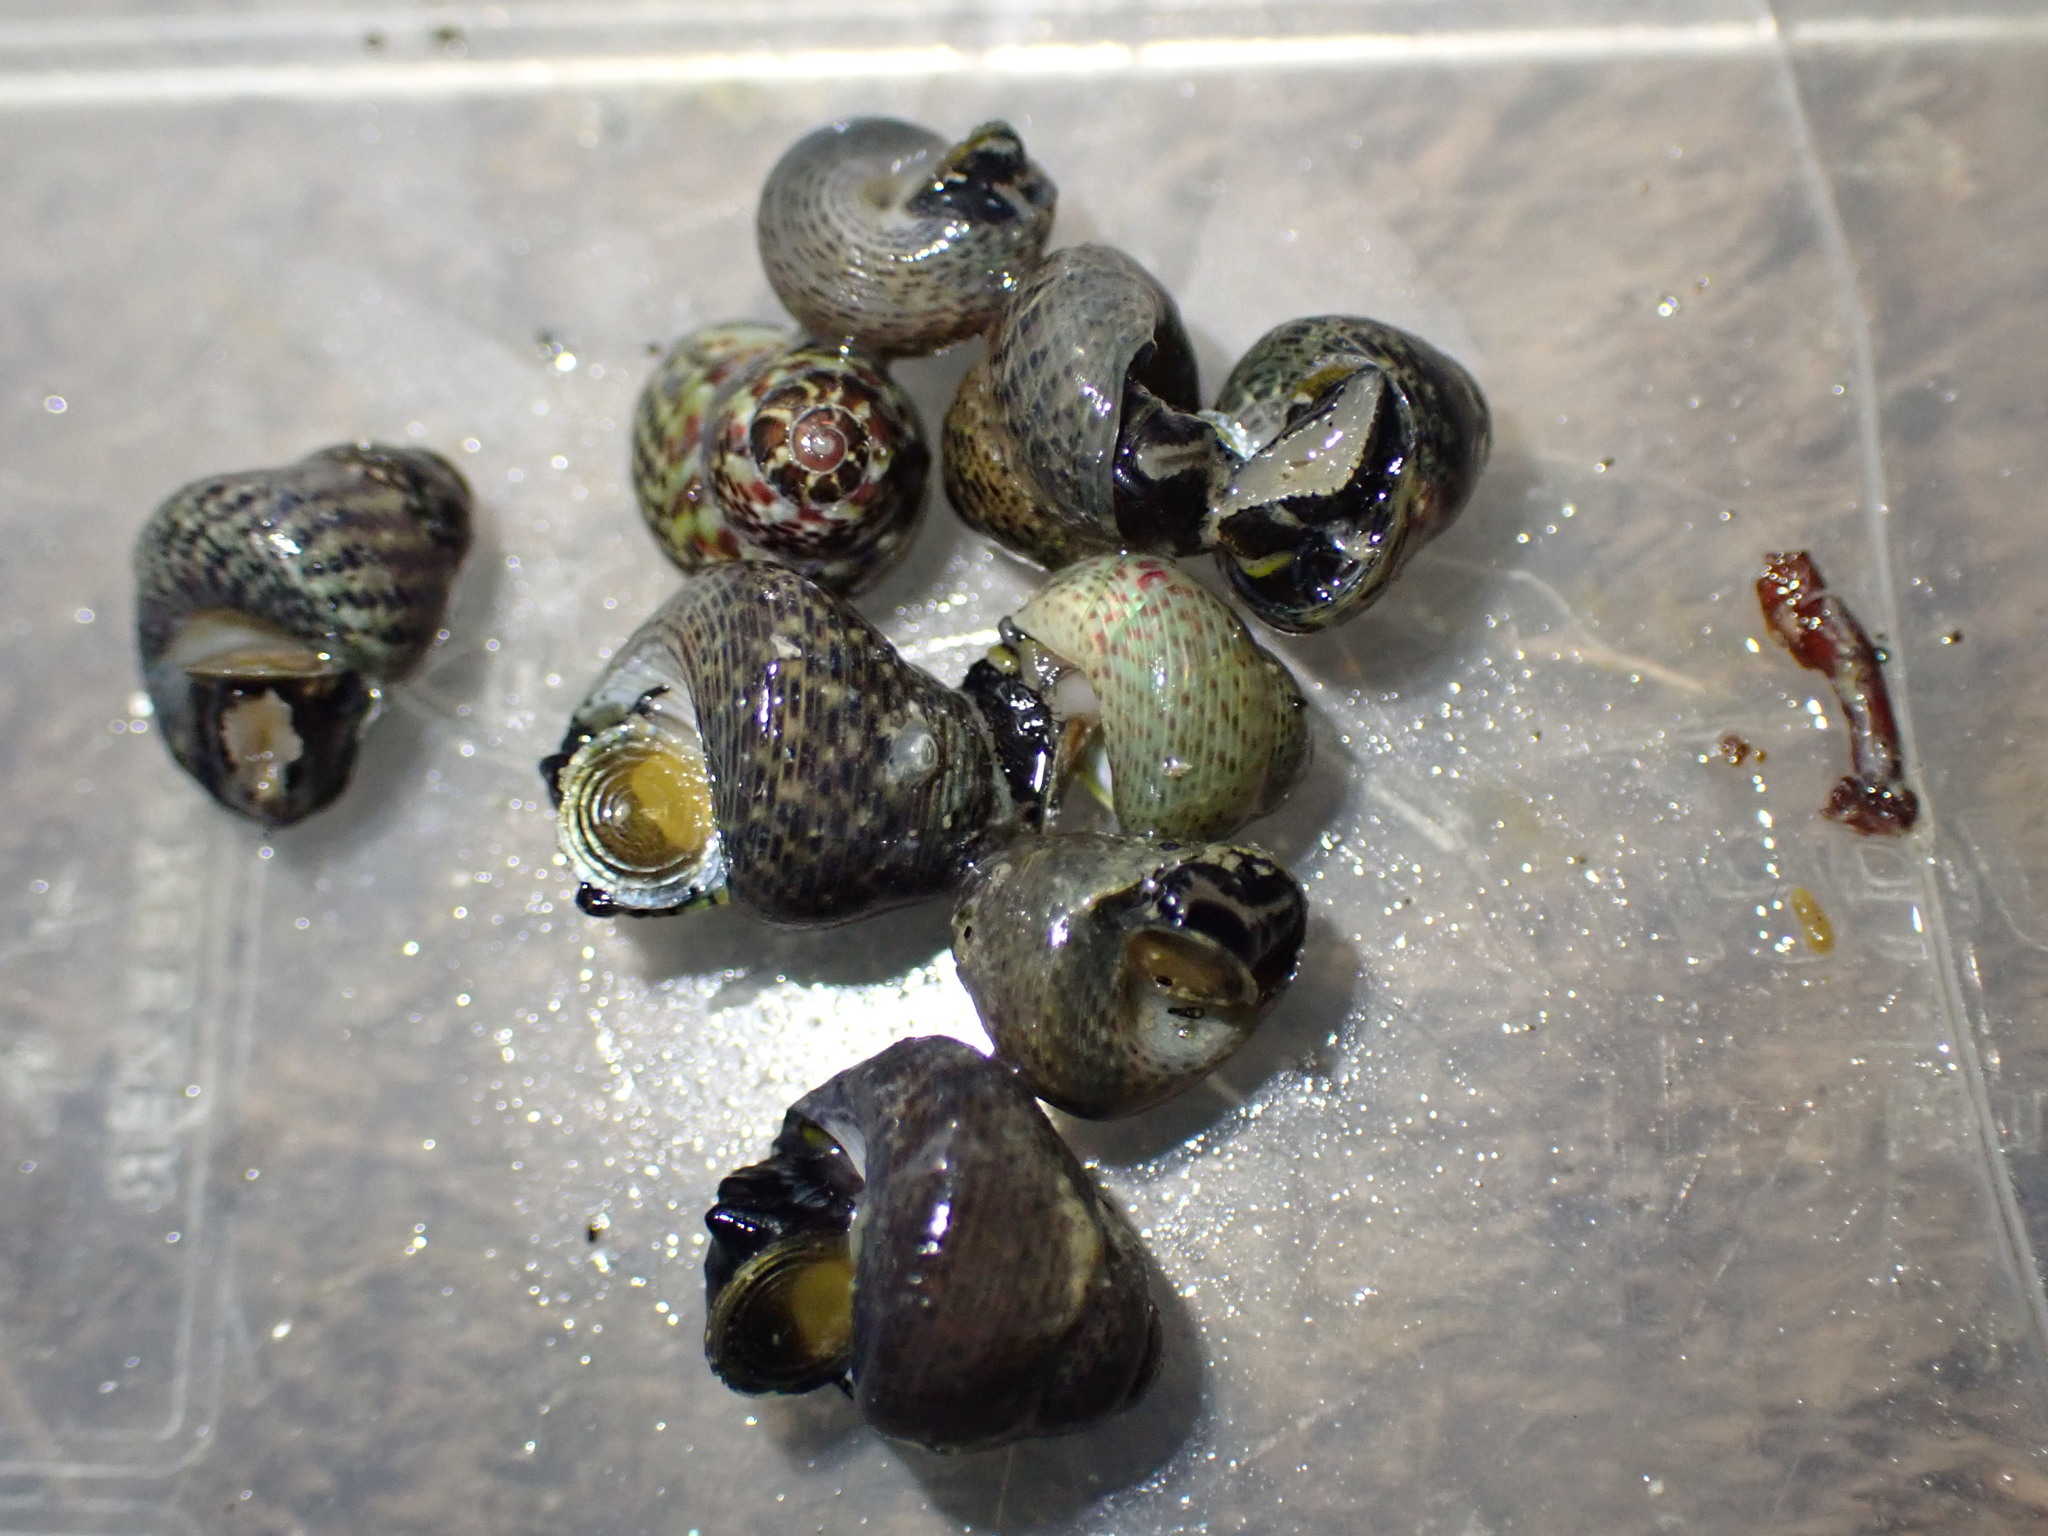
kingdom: Animalia
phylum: Mollusca
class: Gastropoda
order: Trochida
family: Trochidae
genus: Micrelenchus
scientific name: Micrelenchus tessellatus
